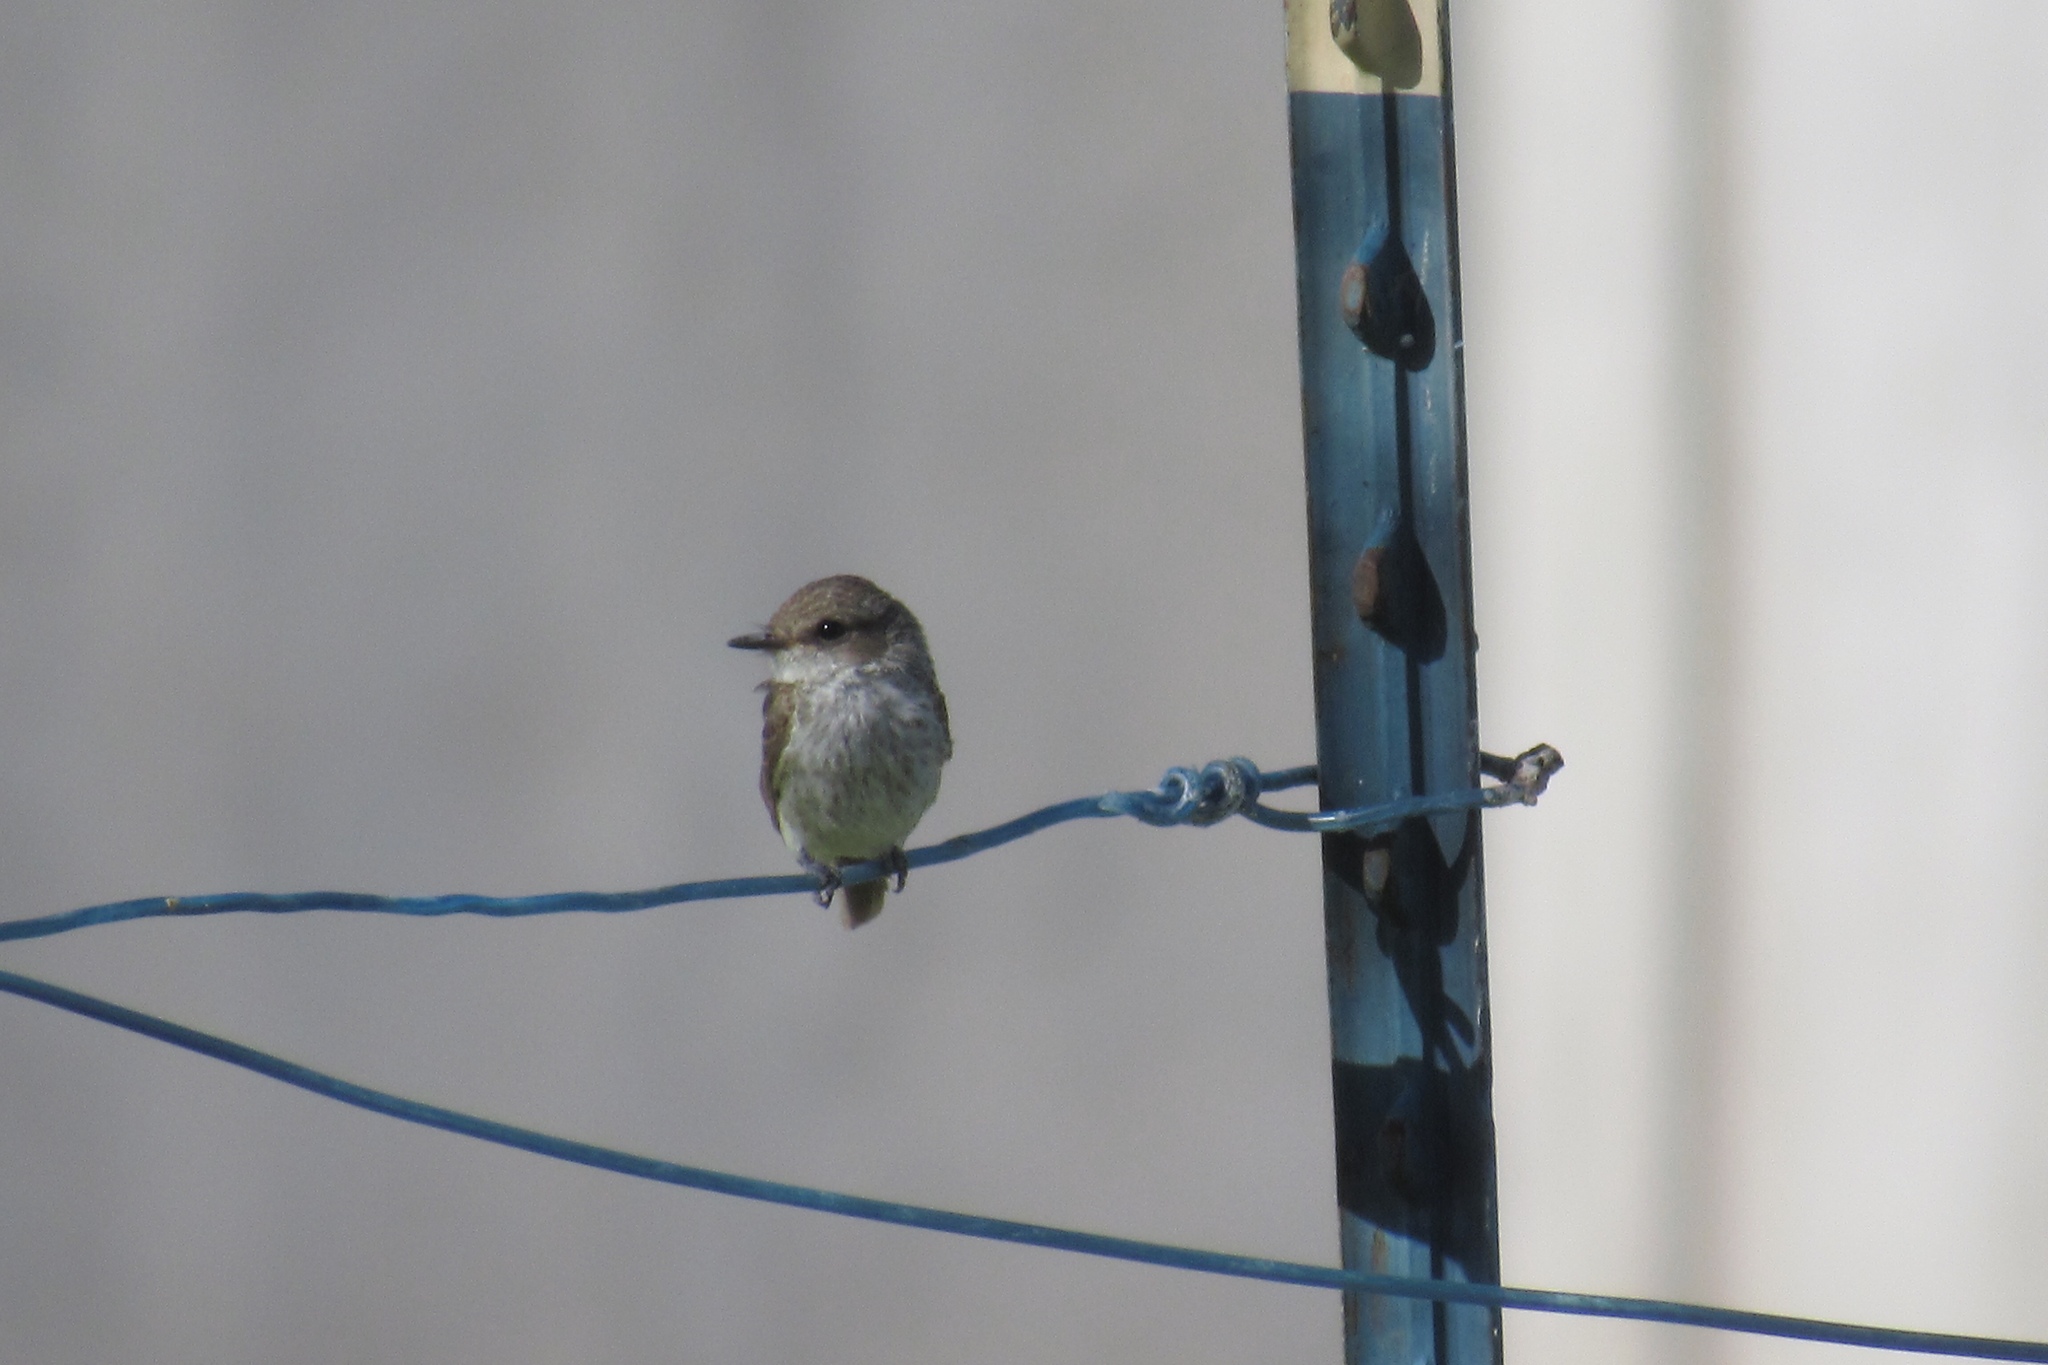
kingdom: Animalia
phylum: Chordata
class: Aves
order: Passeriformes
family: Tyrannidae
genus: Pyrocephalus
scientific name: Pyrocephalus rubinus
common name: Vermilion flycatcher
